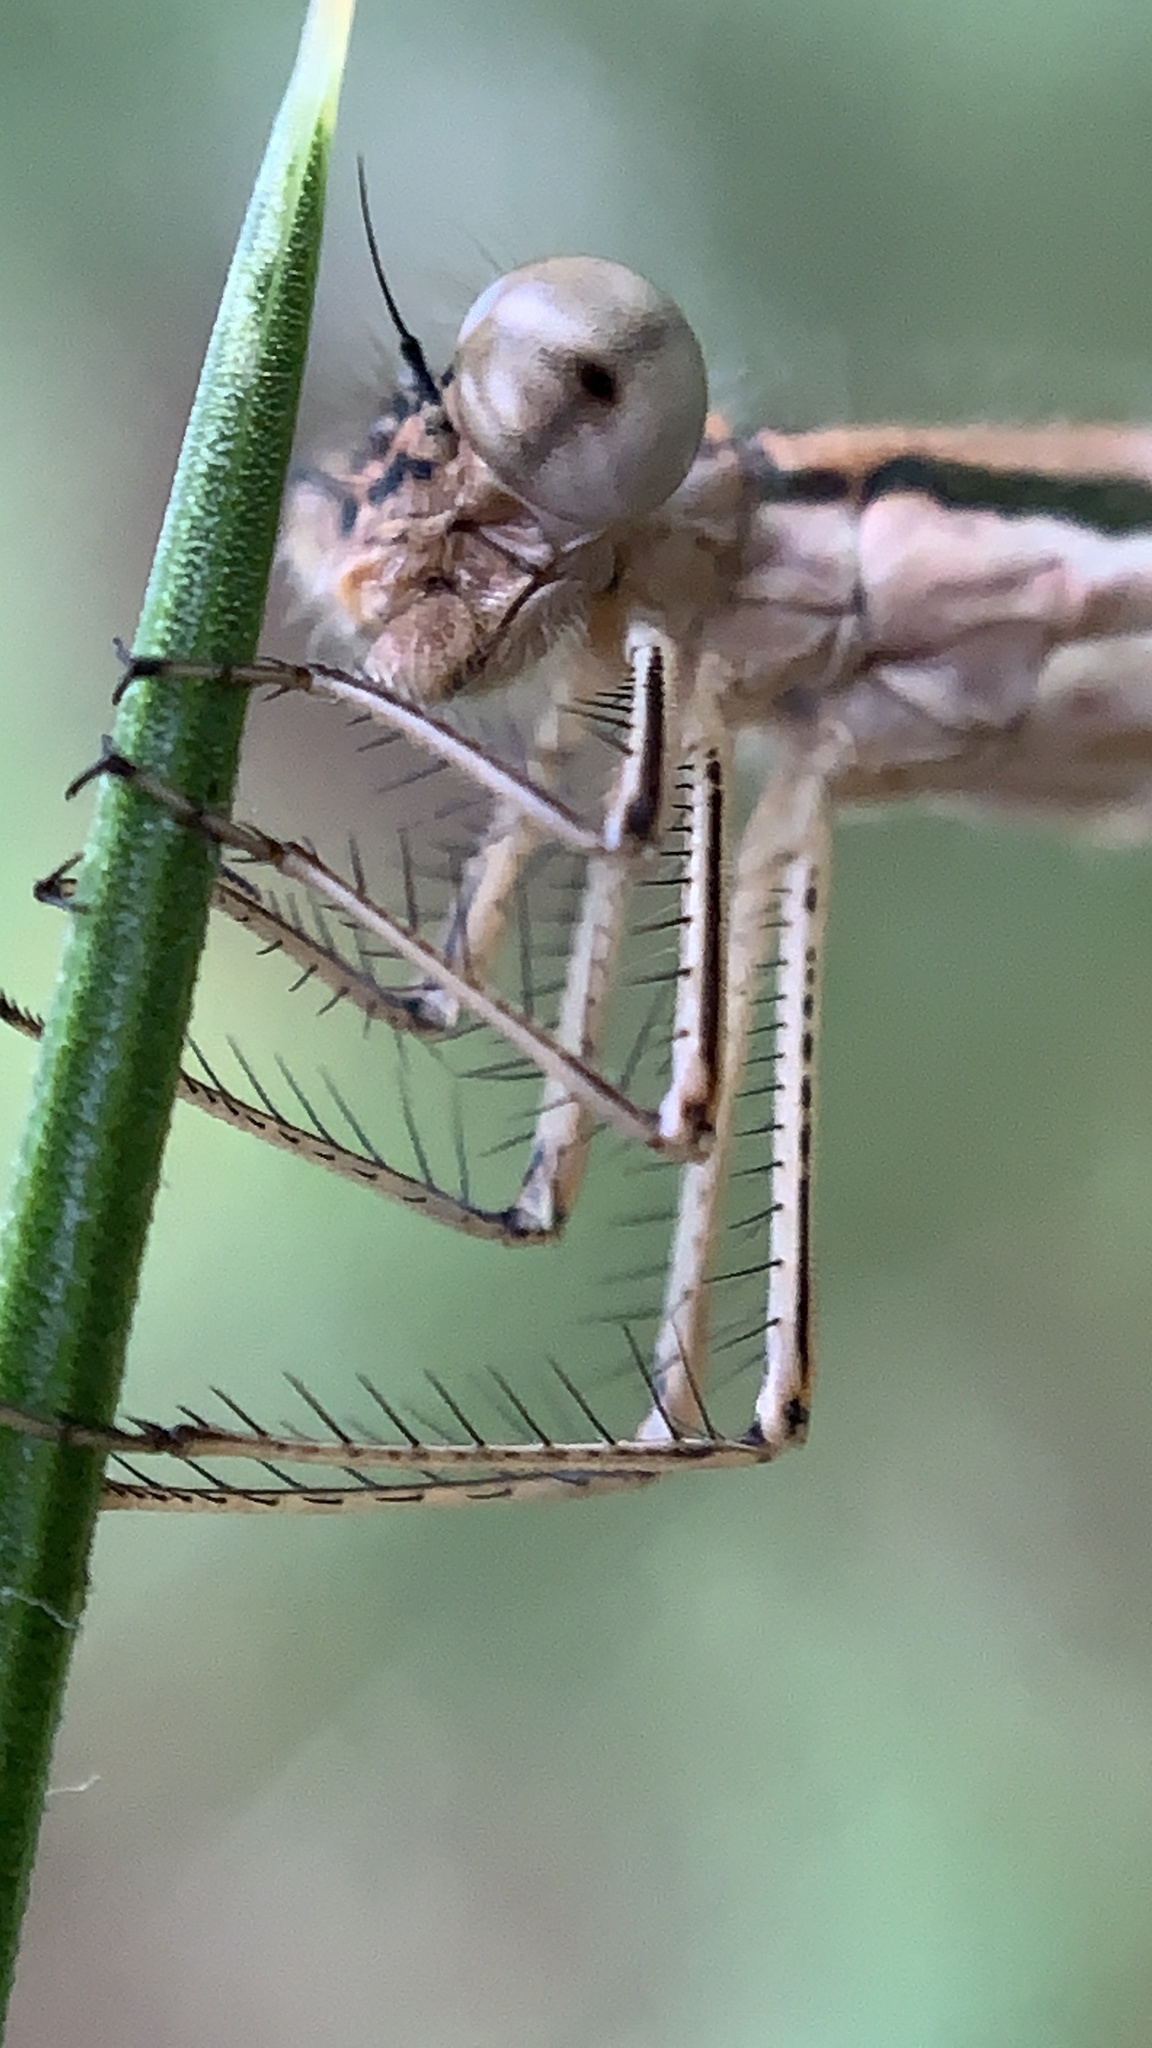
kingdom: Animalia
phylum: Arthropoda
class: Insecta
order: Odonata
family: Lestidae
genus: Sympecma
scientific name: Sympecma fusca
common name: Common winter damsel
